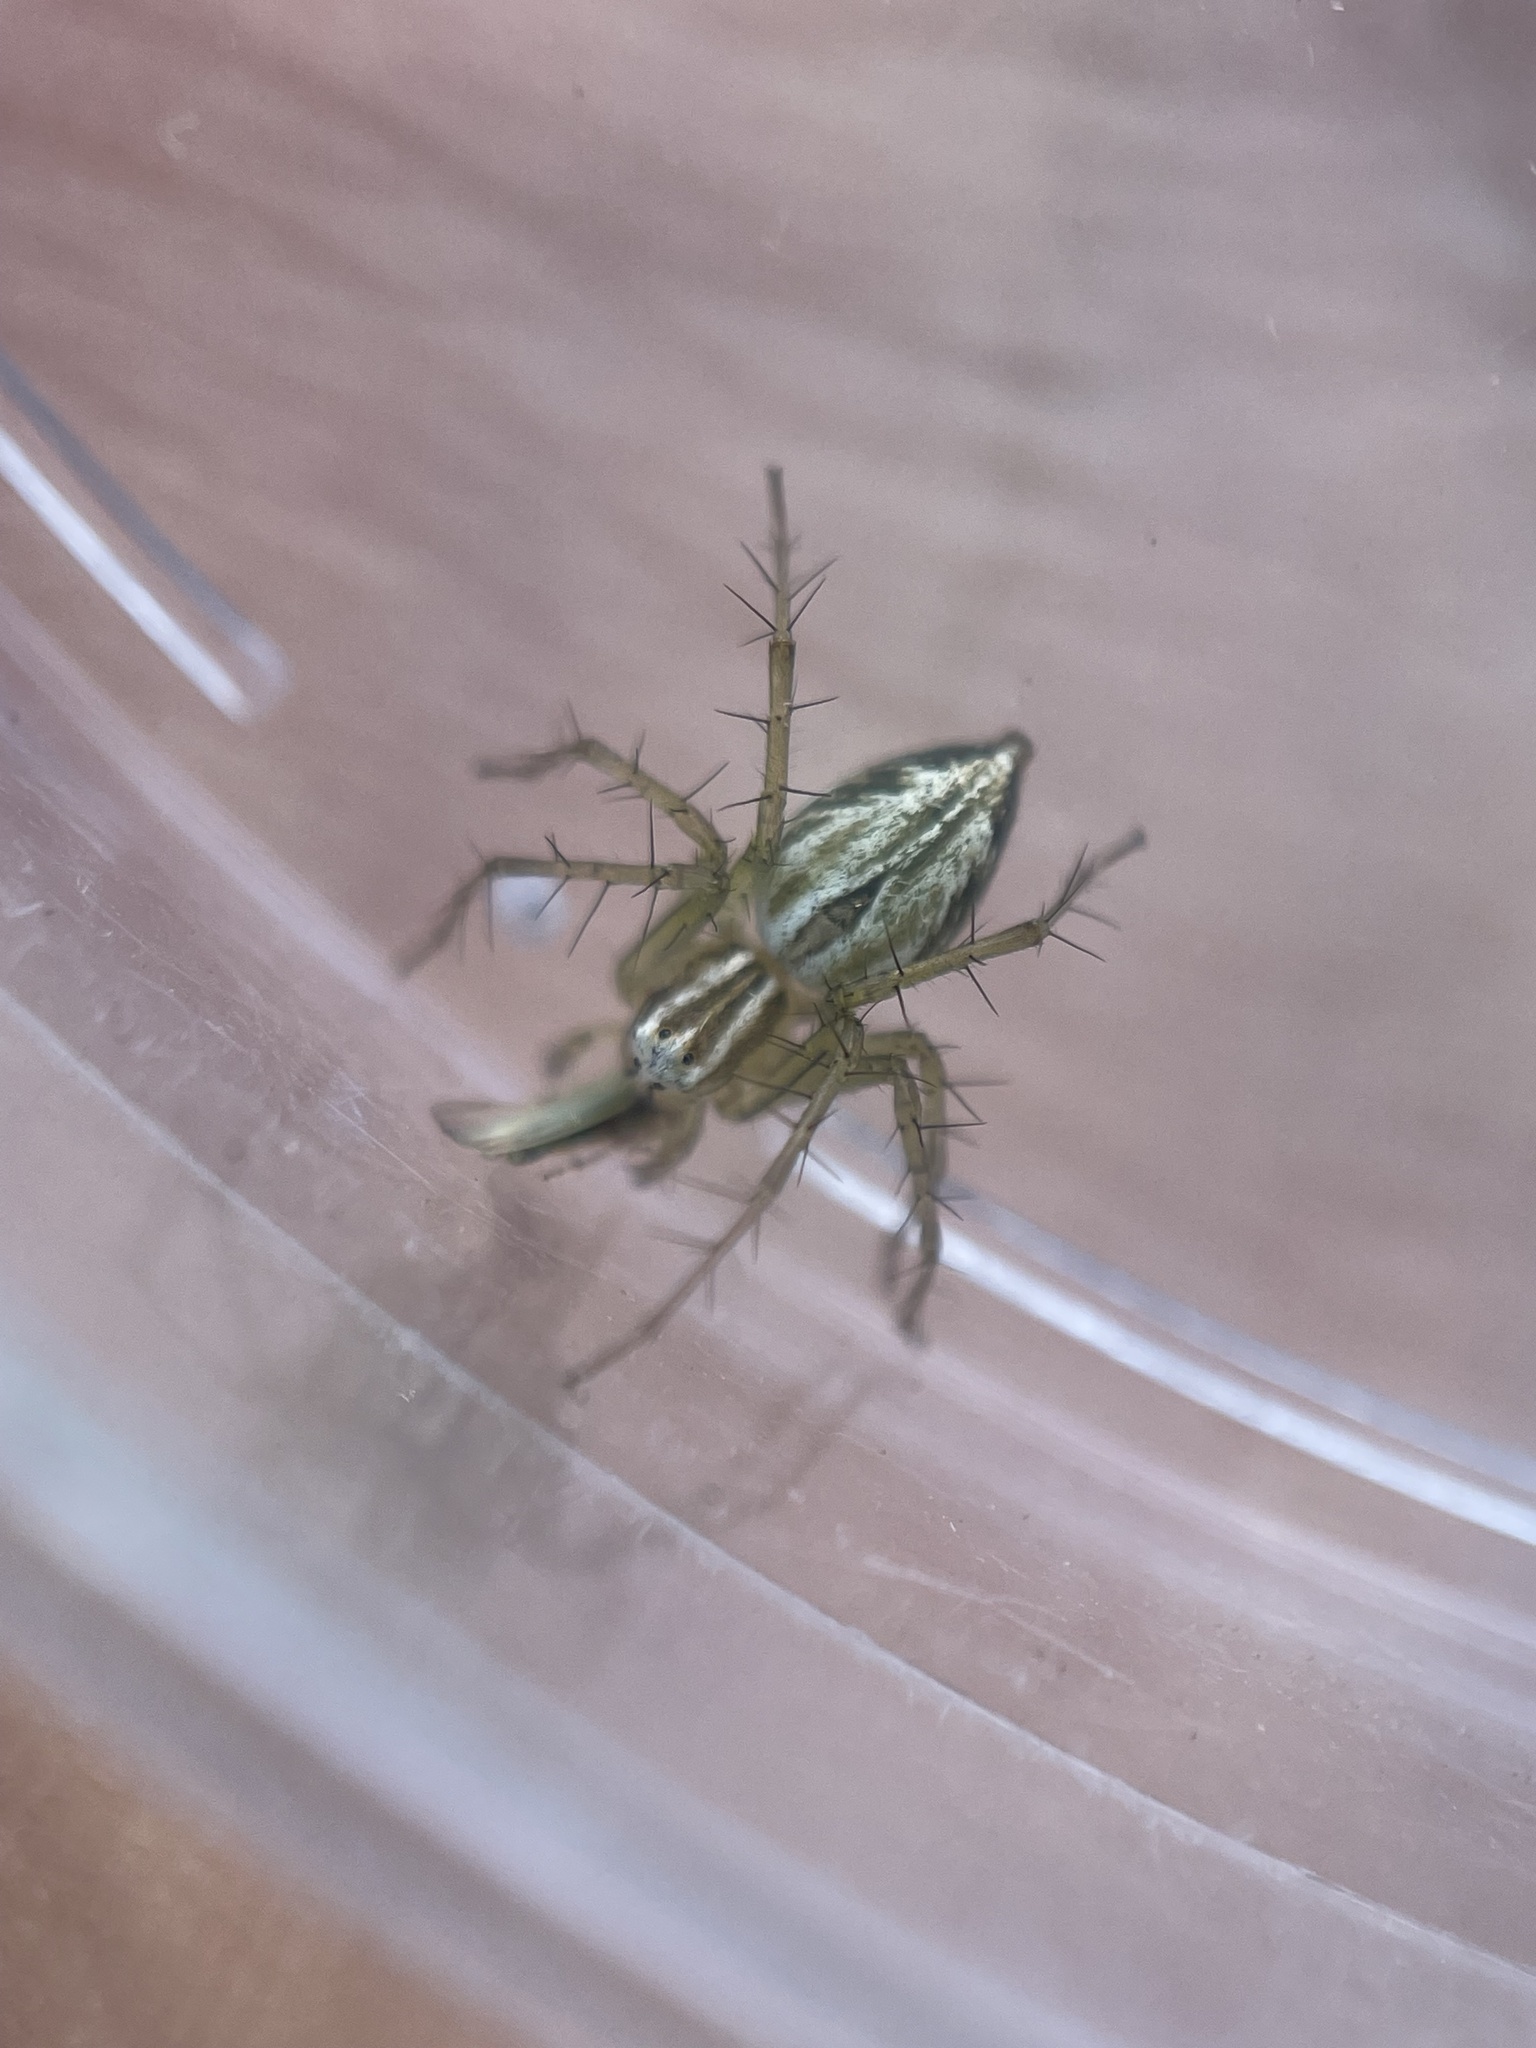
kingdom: Animalia
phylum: Arthropoda
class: Arachnida
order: Araneae
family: Oxyopidae
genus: Oxyopes
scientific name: Oxyopes salticus
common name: Lynx spiders
